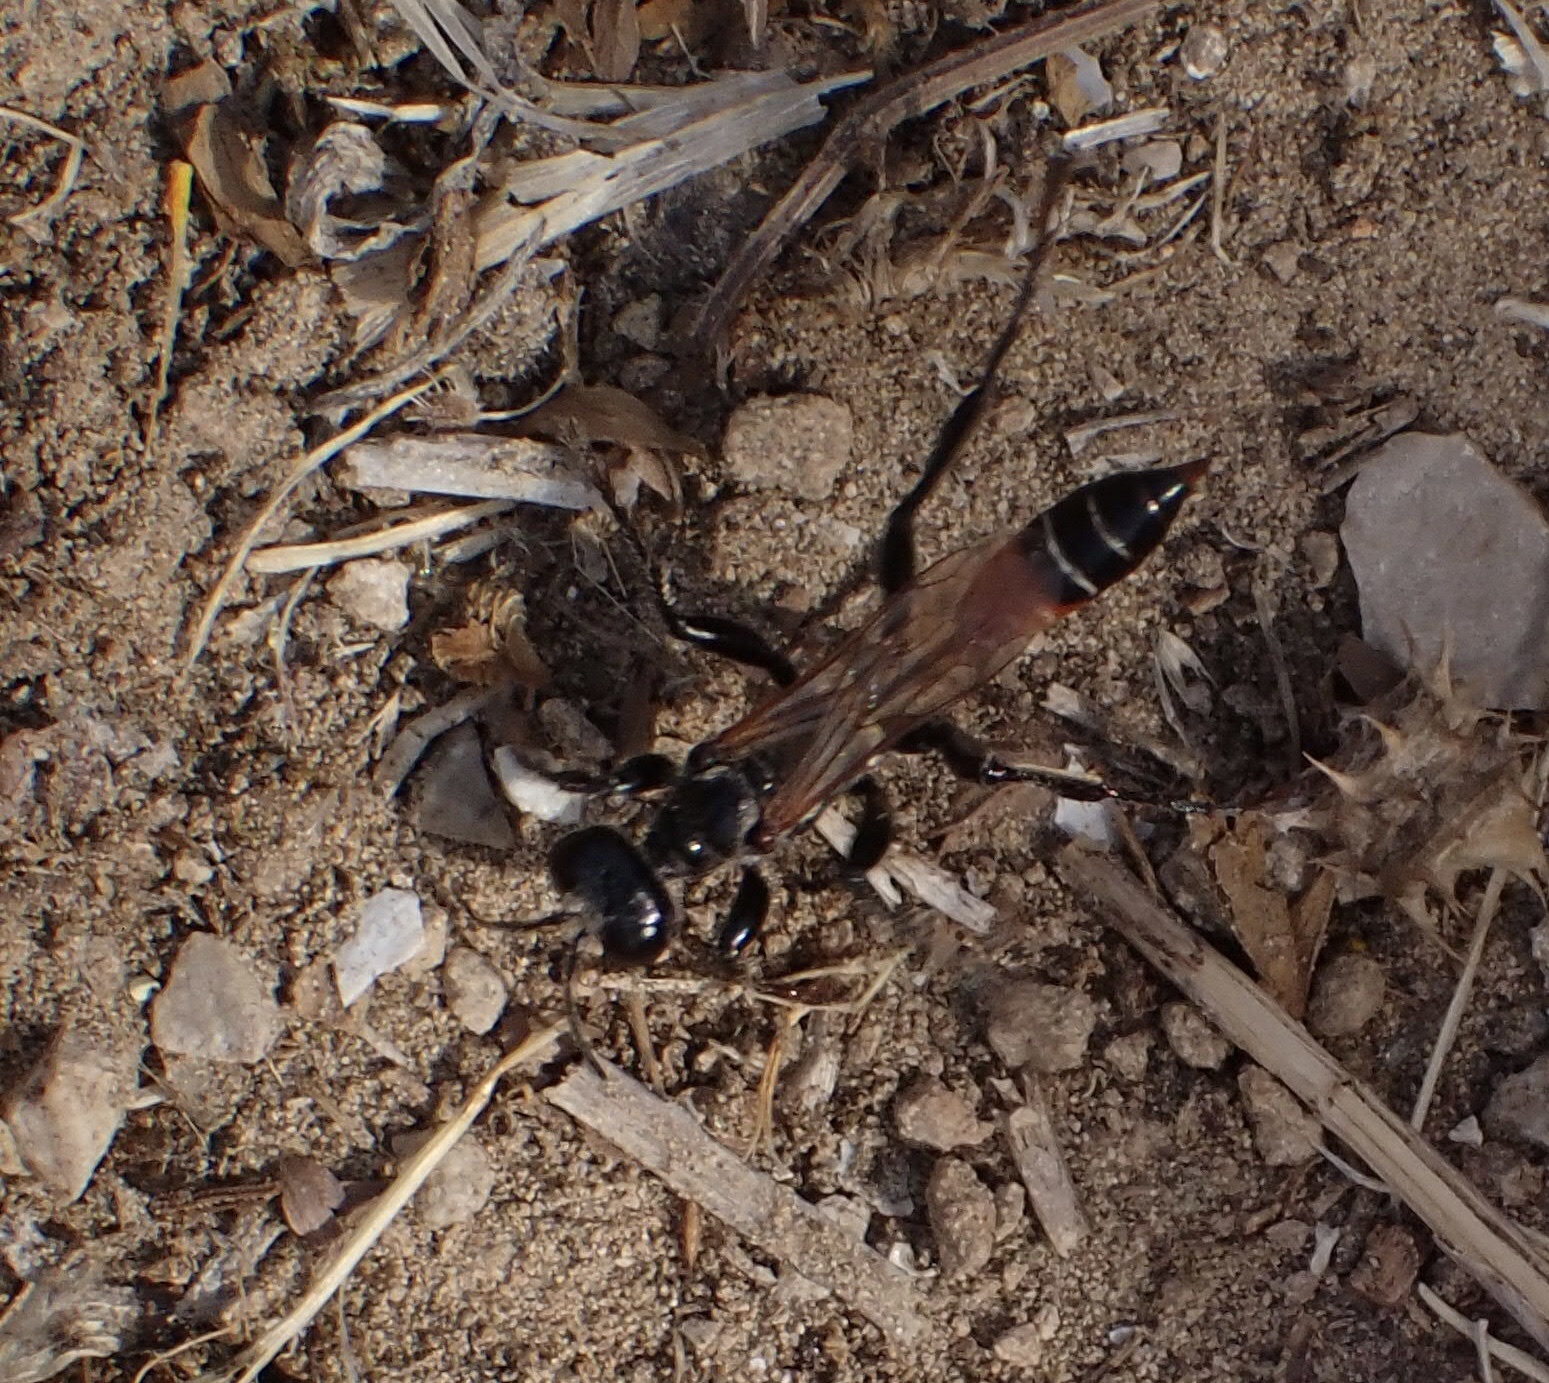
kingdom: Animalia
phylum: Arthropoda
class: Insecta
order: Hymenoptera
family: Sphecidae
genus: Prionyx
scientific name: Prionyx kirbii
